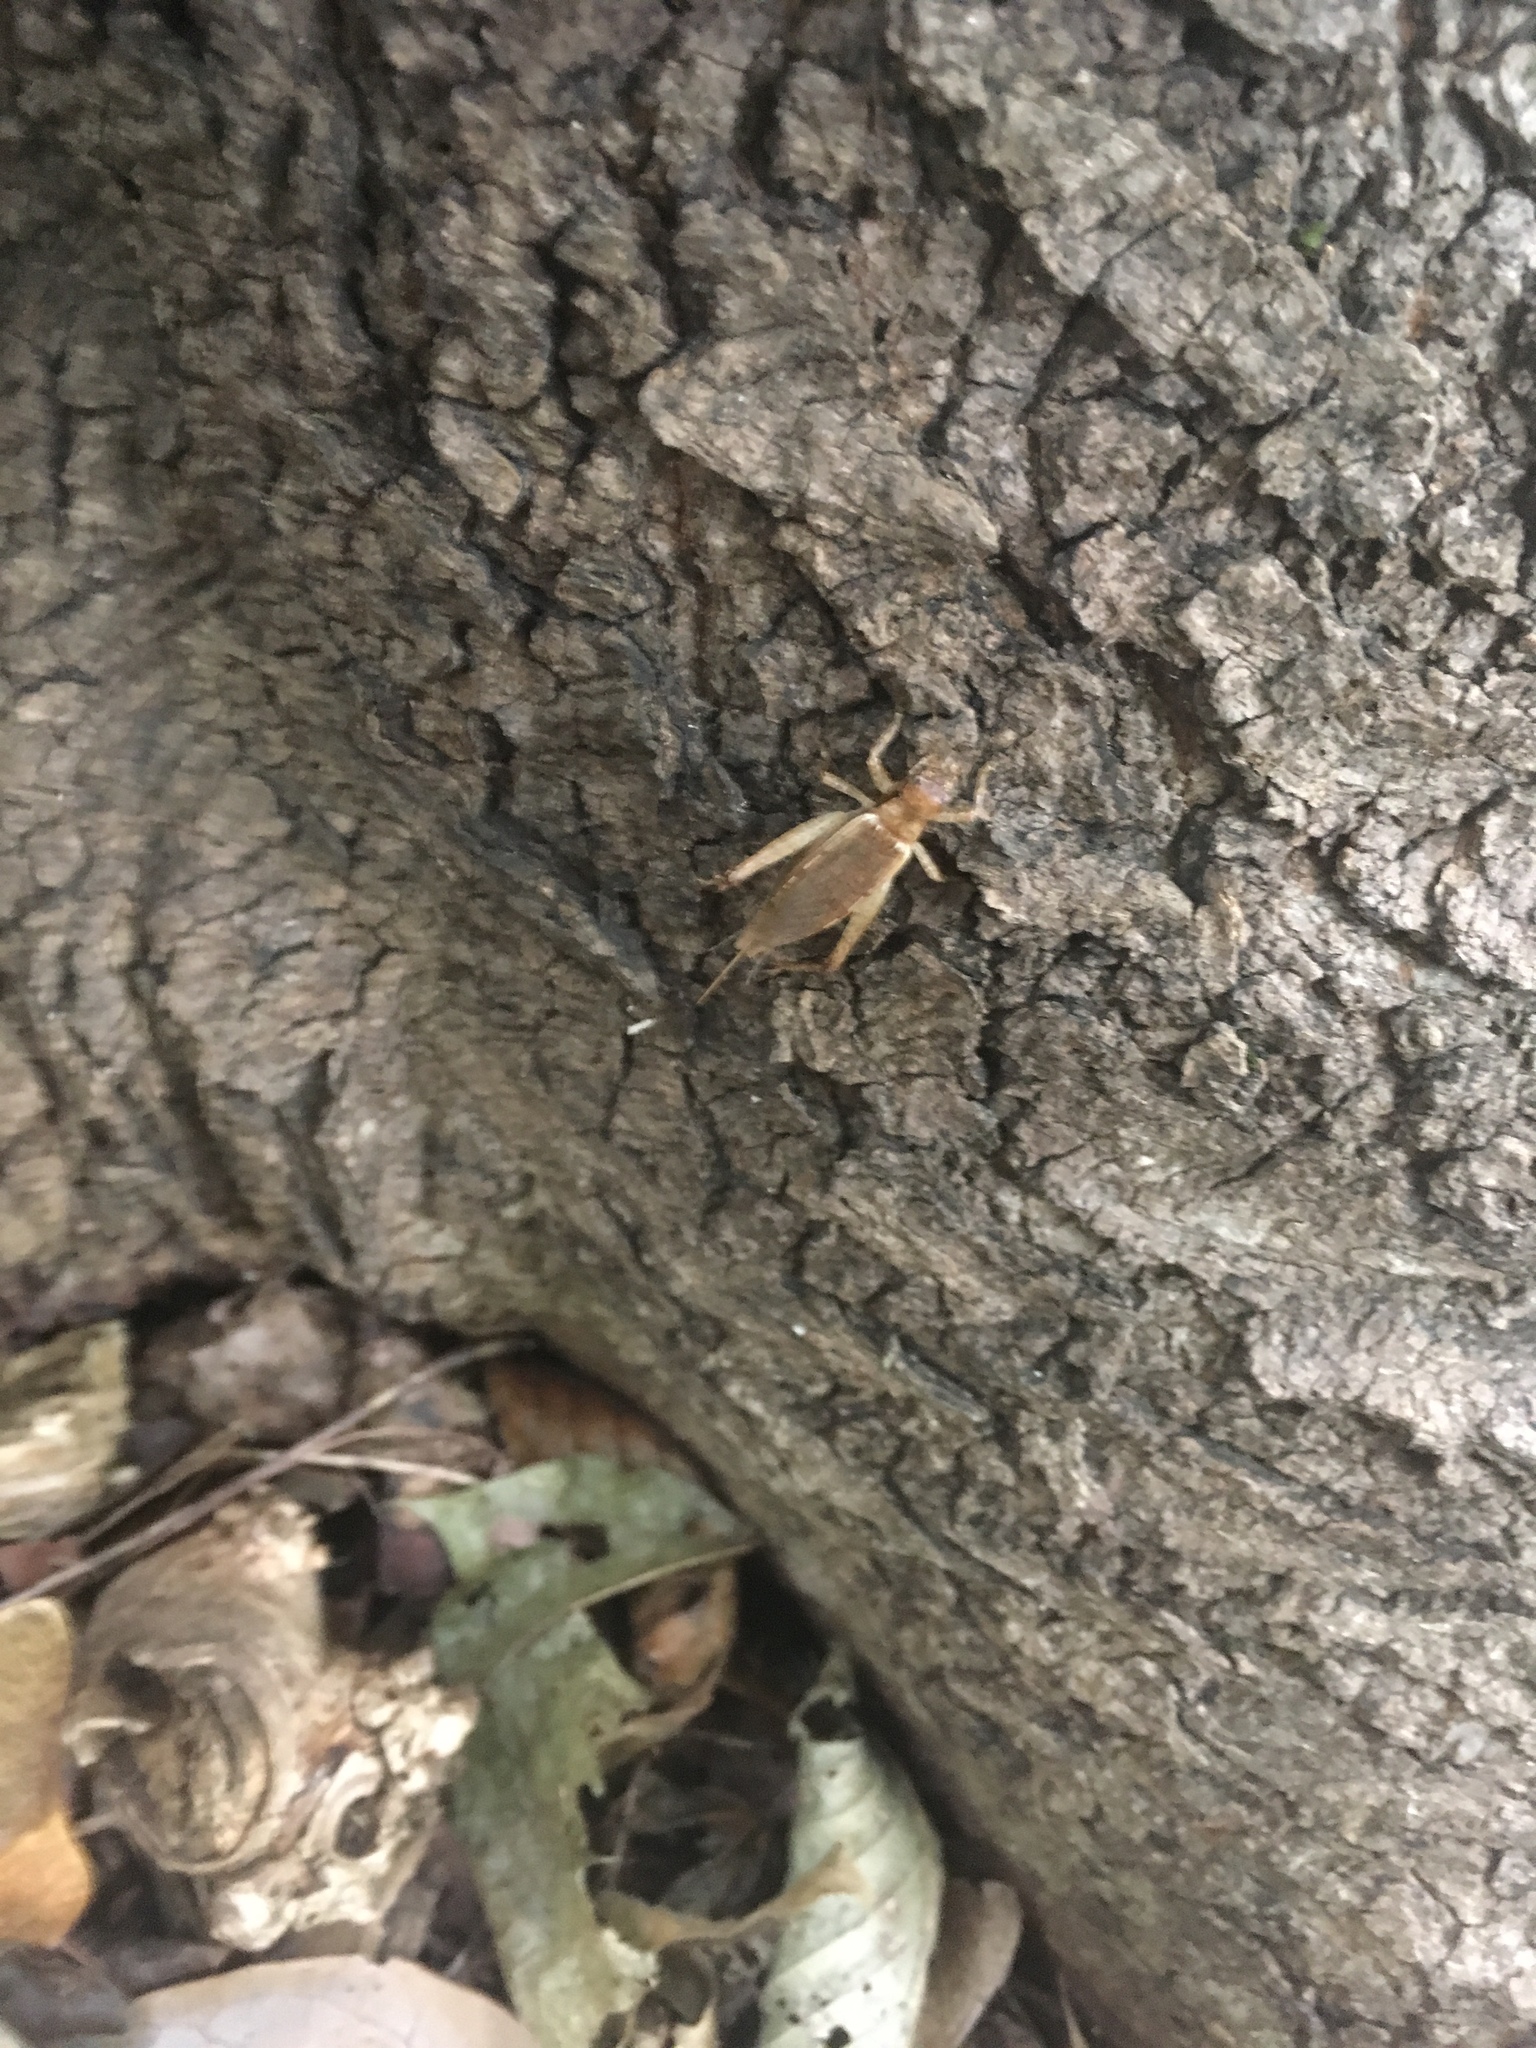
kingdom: Animalia
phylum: Arthropoda
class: Insecta
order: Orthoptera
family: Gryllidae
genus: Hapithus
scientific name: Hapithus saltator
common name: Jumping bush cricket
